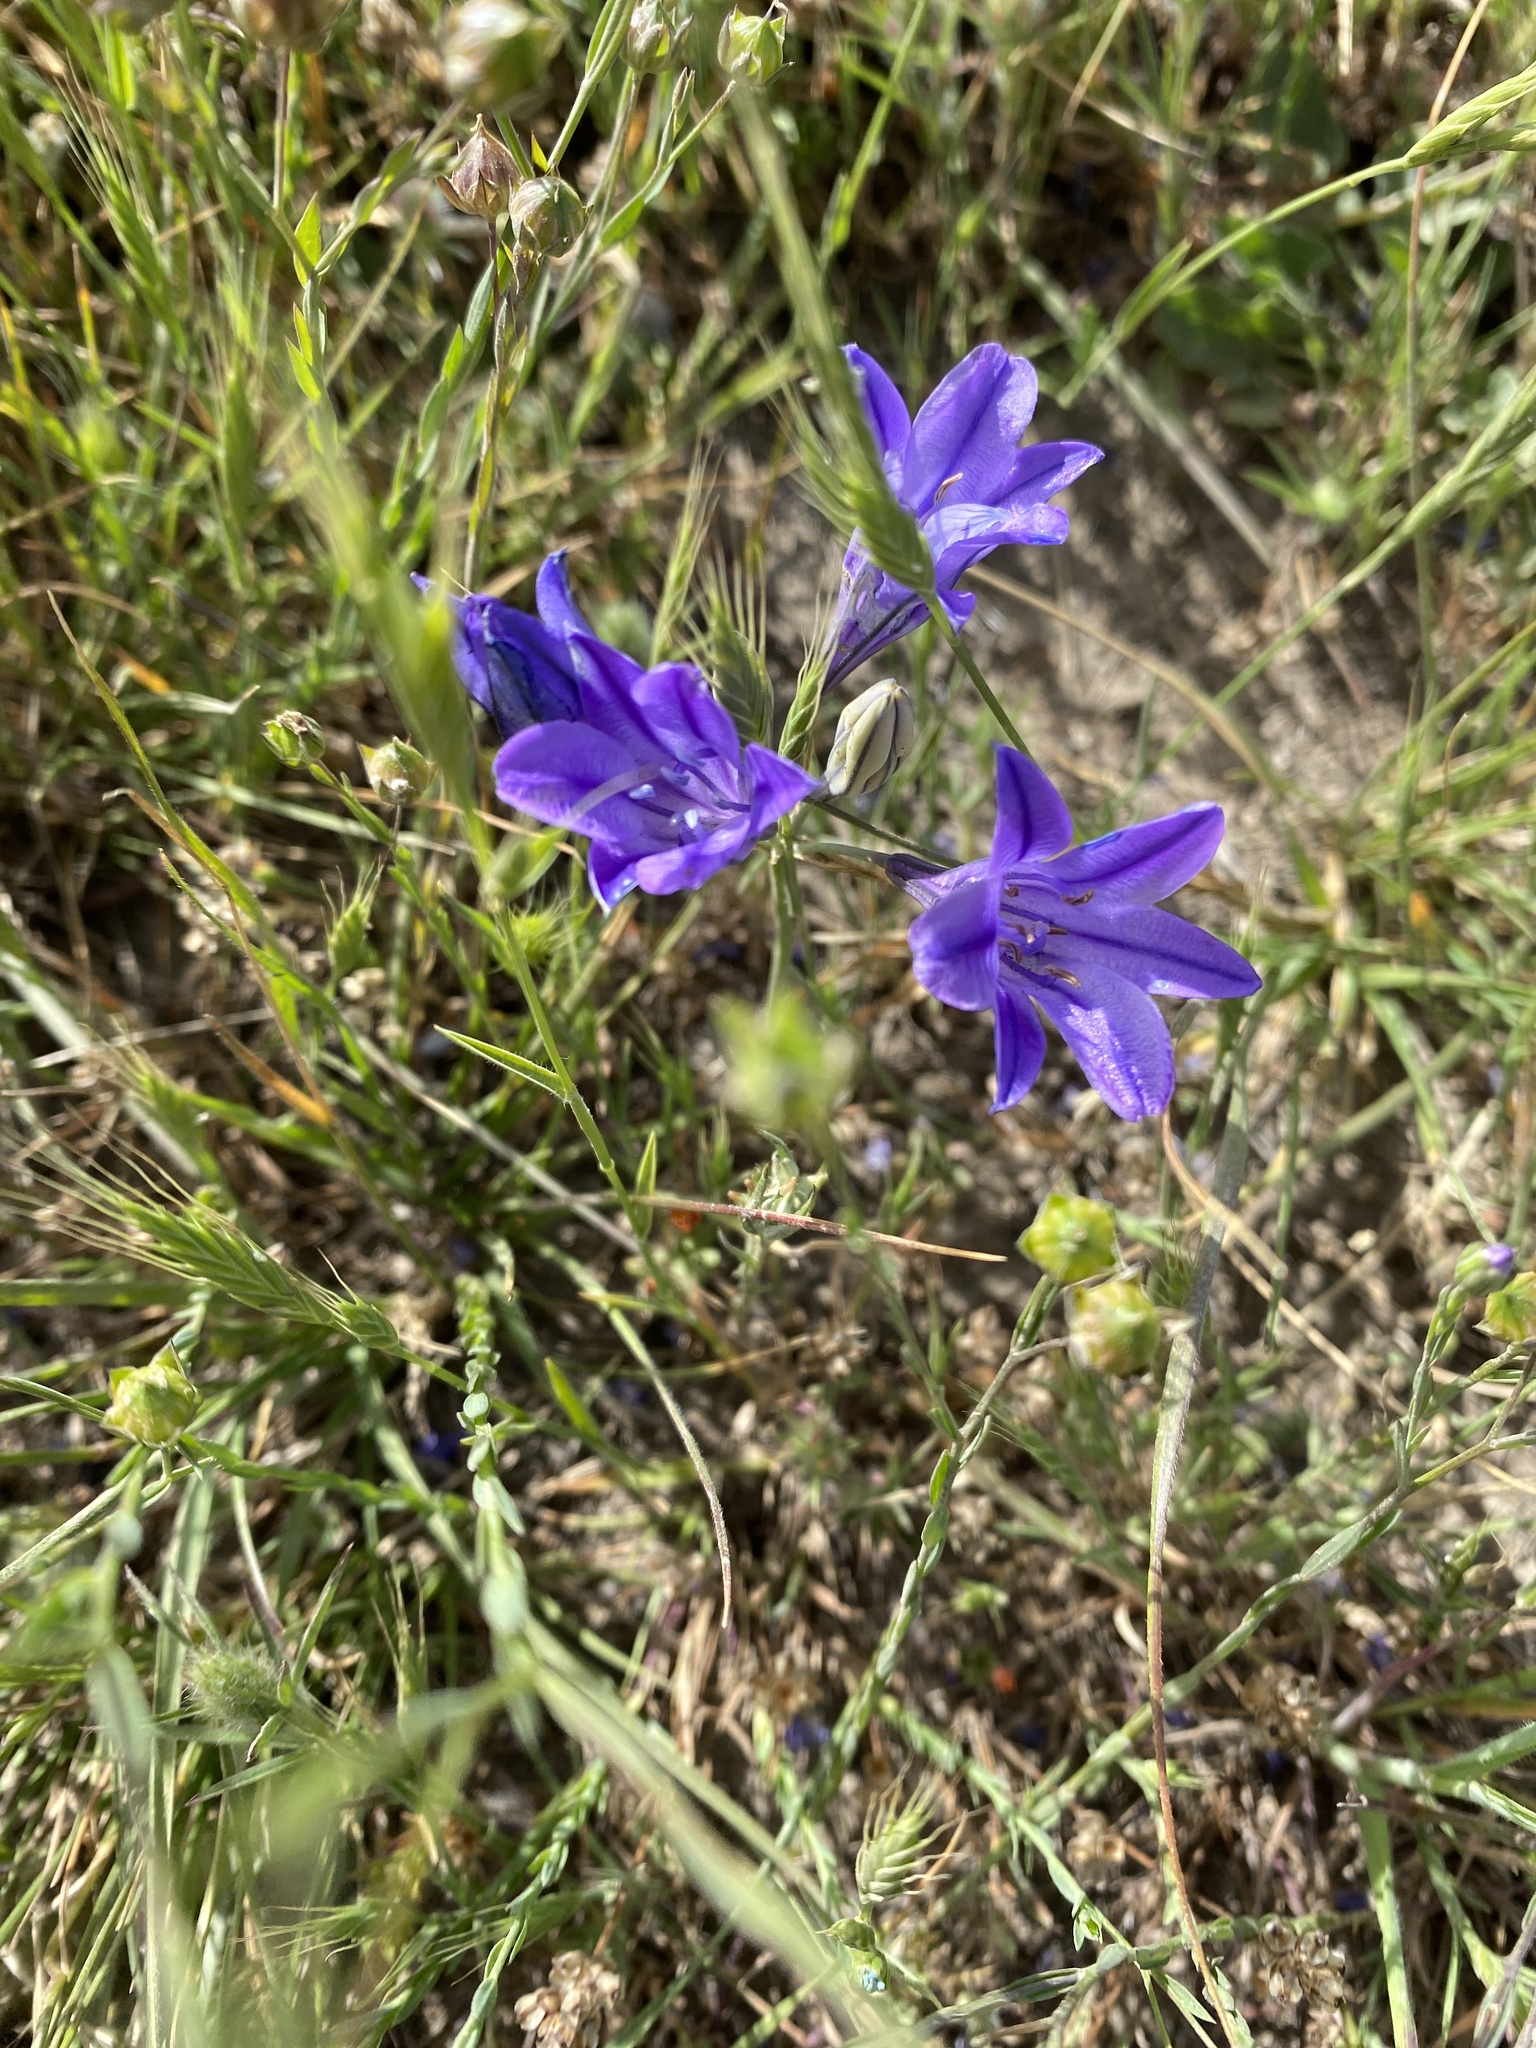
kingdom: Plantae
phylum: Tracheophyta
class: Liliopsida
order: Asparagales
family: Asparagaceae
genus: Triteleia
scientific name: Triteleia laxa
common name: Triplet-lily
